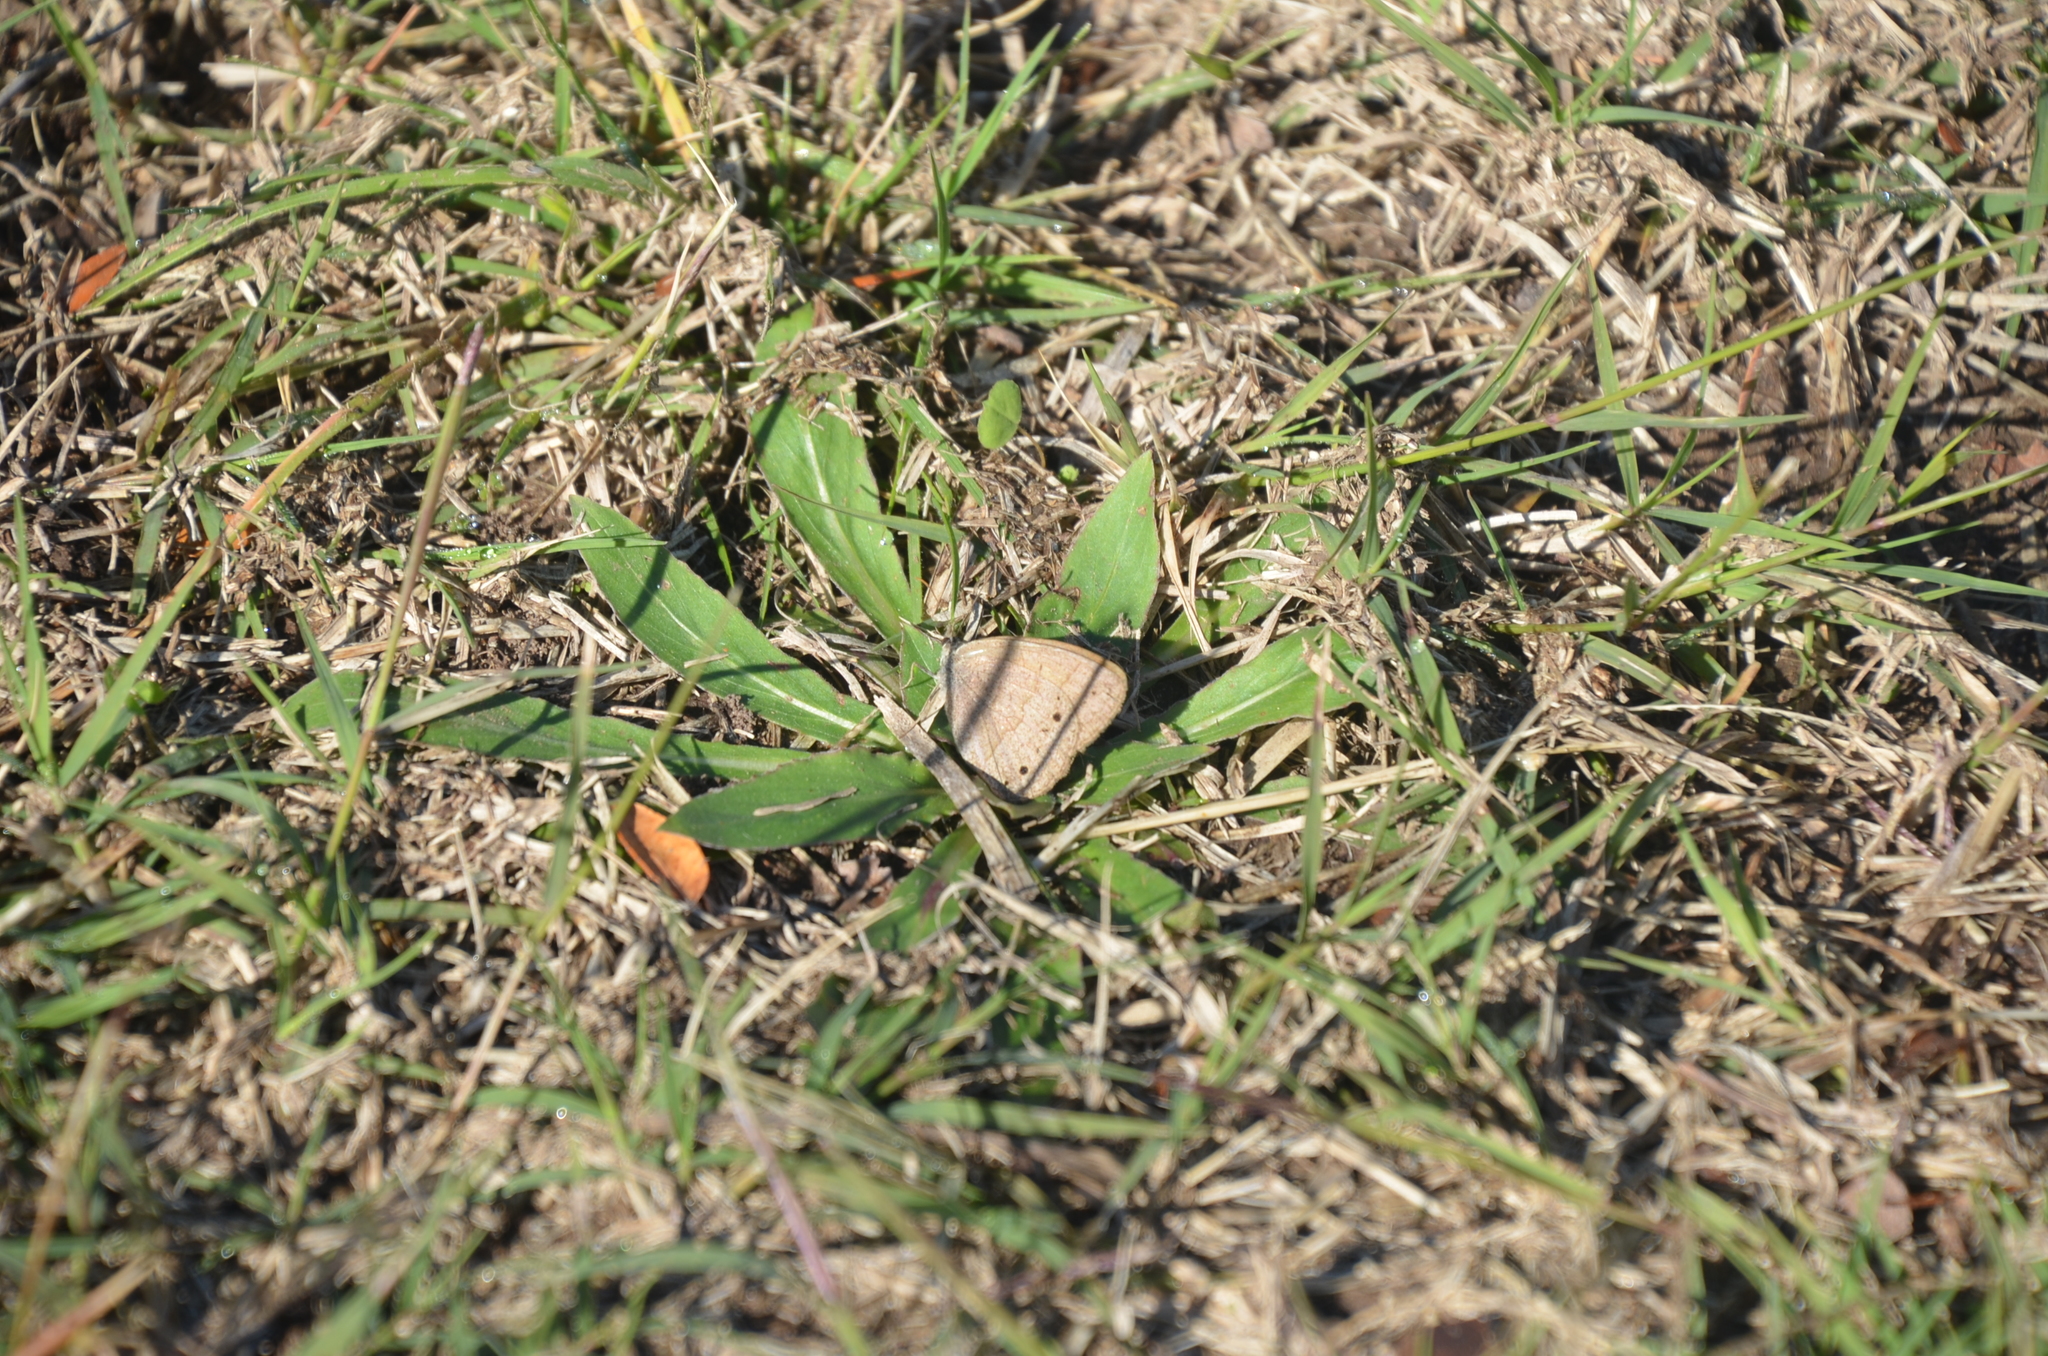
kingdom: Animalia
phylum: Arthropoda
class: Insecta
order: Lepidoptera
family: Nymphalidae
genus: Yphthimoides
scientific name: Yphthimoides celmis
